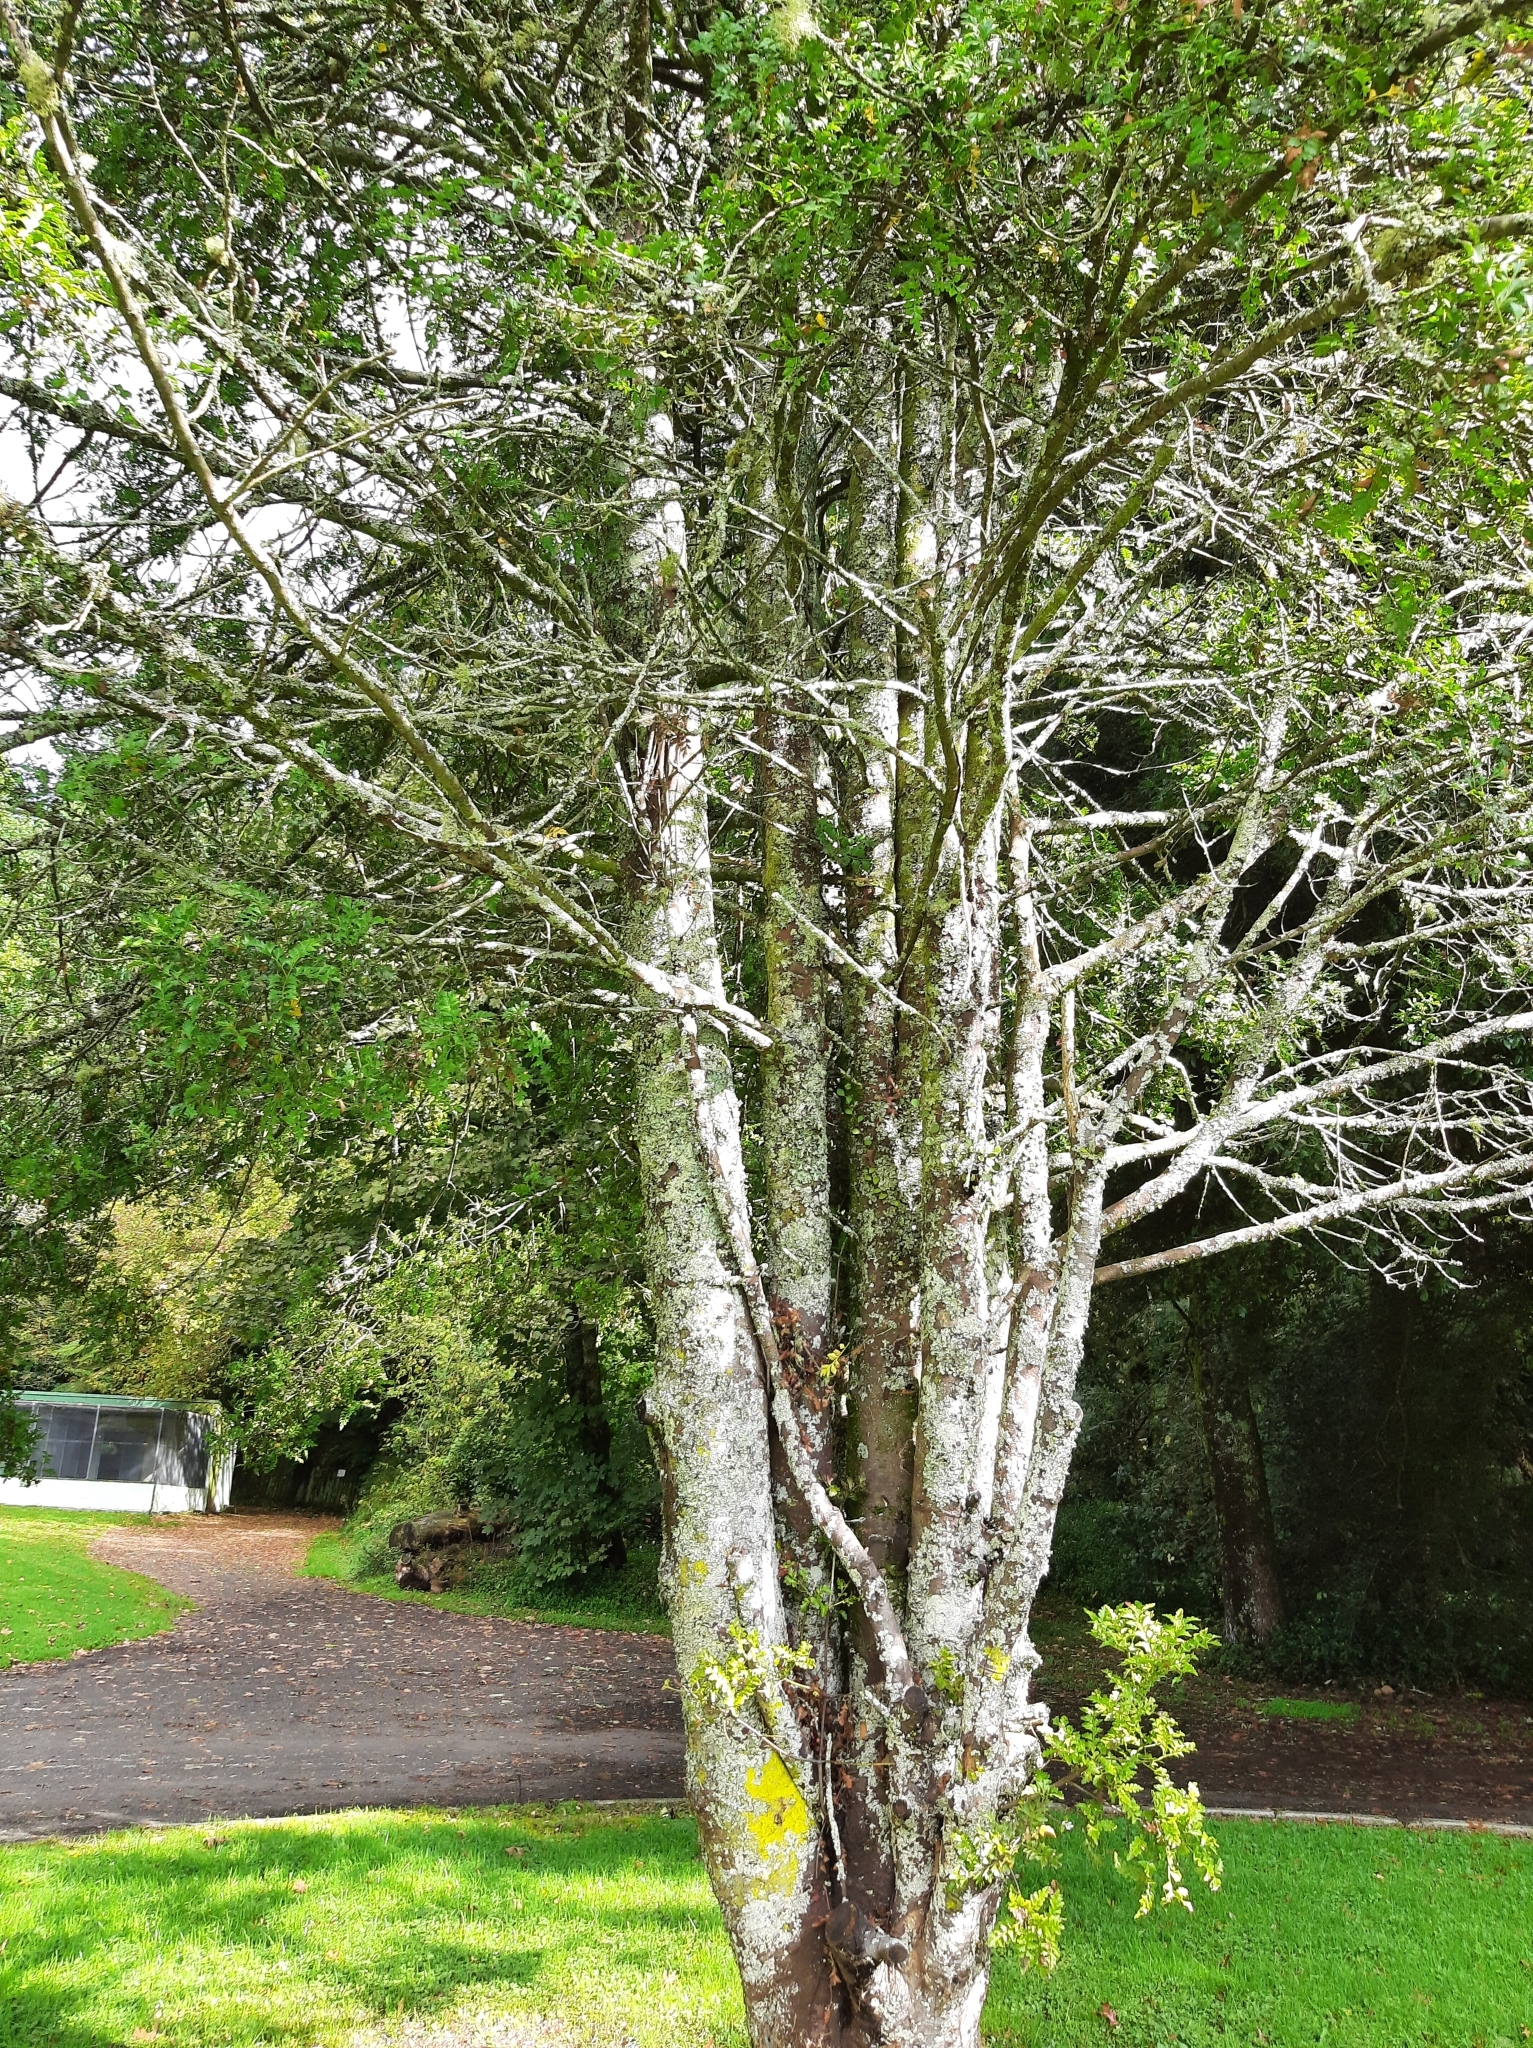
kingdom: Plantae
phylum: Tracheophyta
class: Pinopsida
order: Pinales
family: Phyllocladaceae
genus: Phyllocladus
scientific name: Phyllocladus trichomanoides
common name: Celery pine
